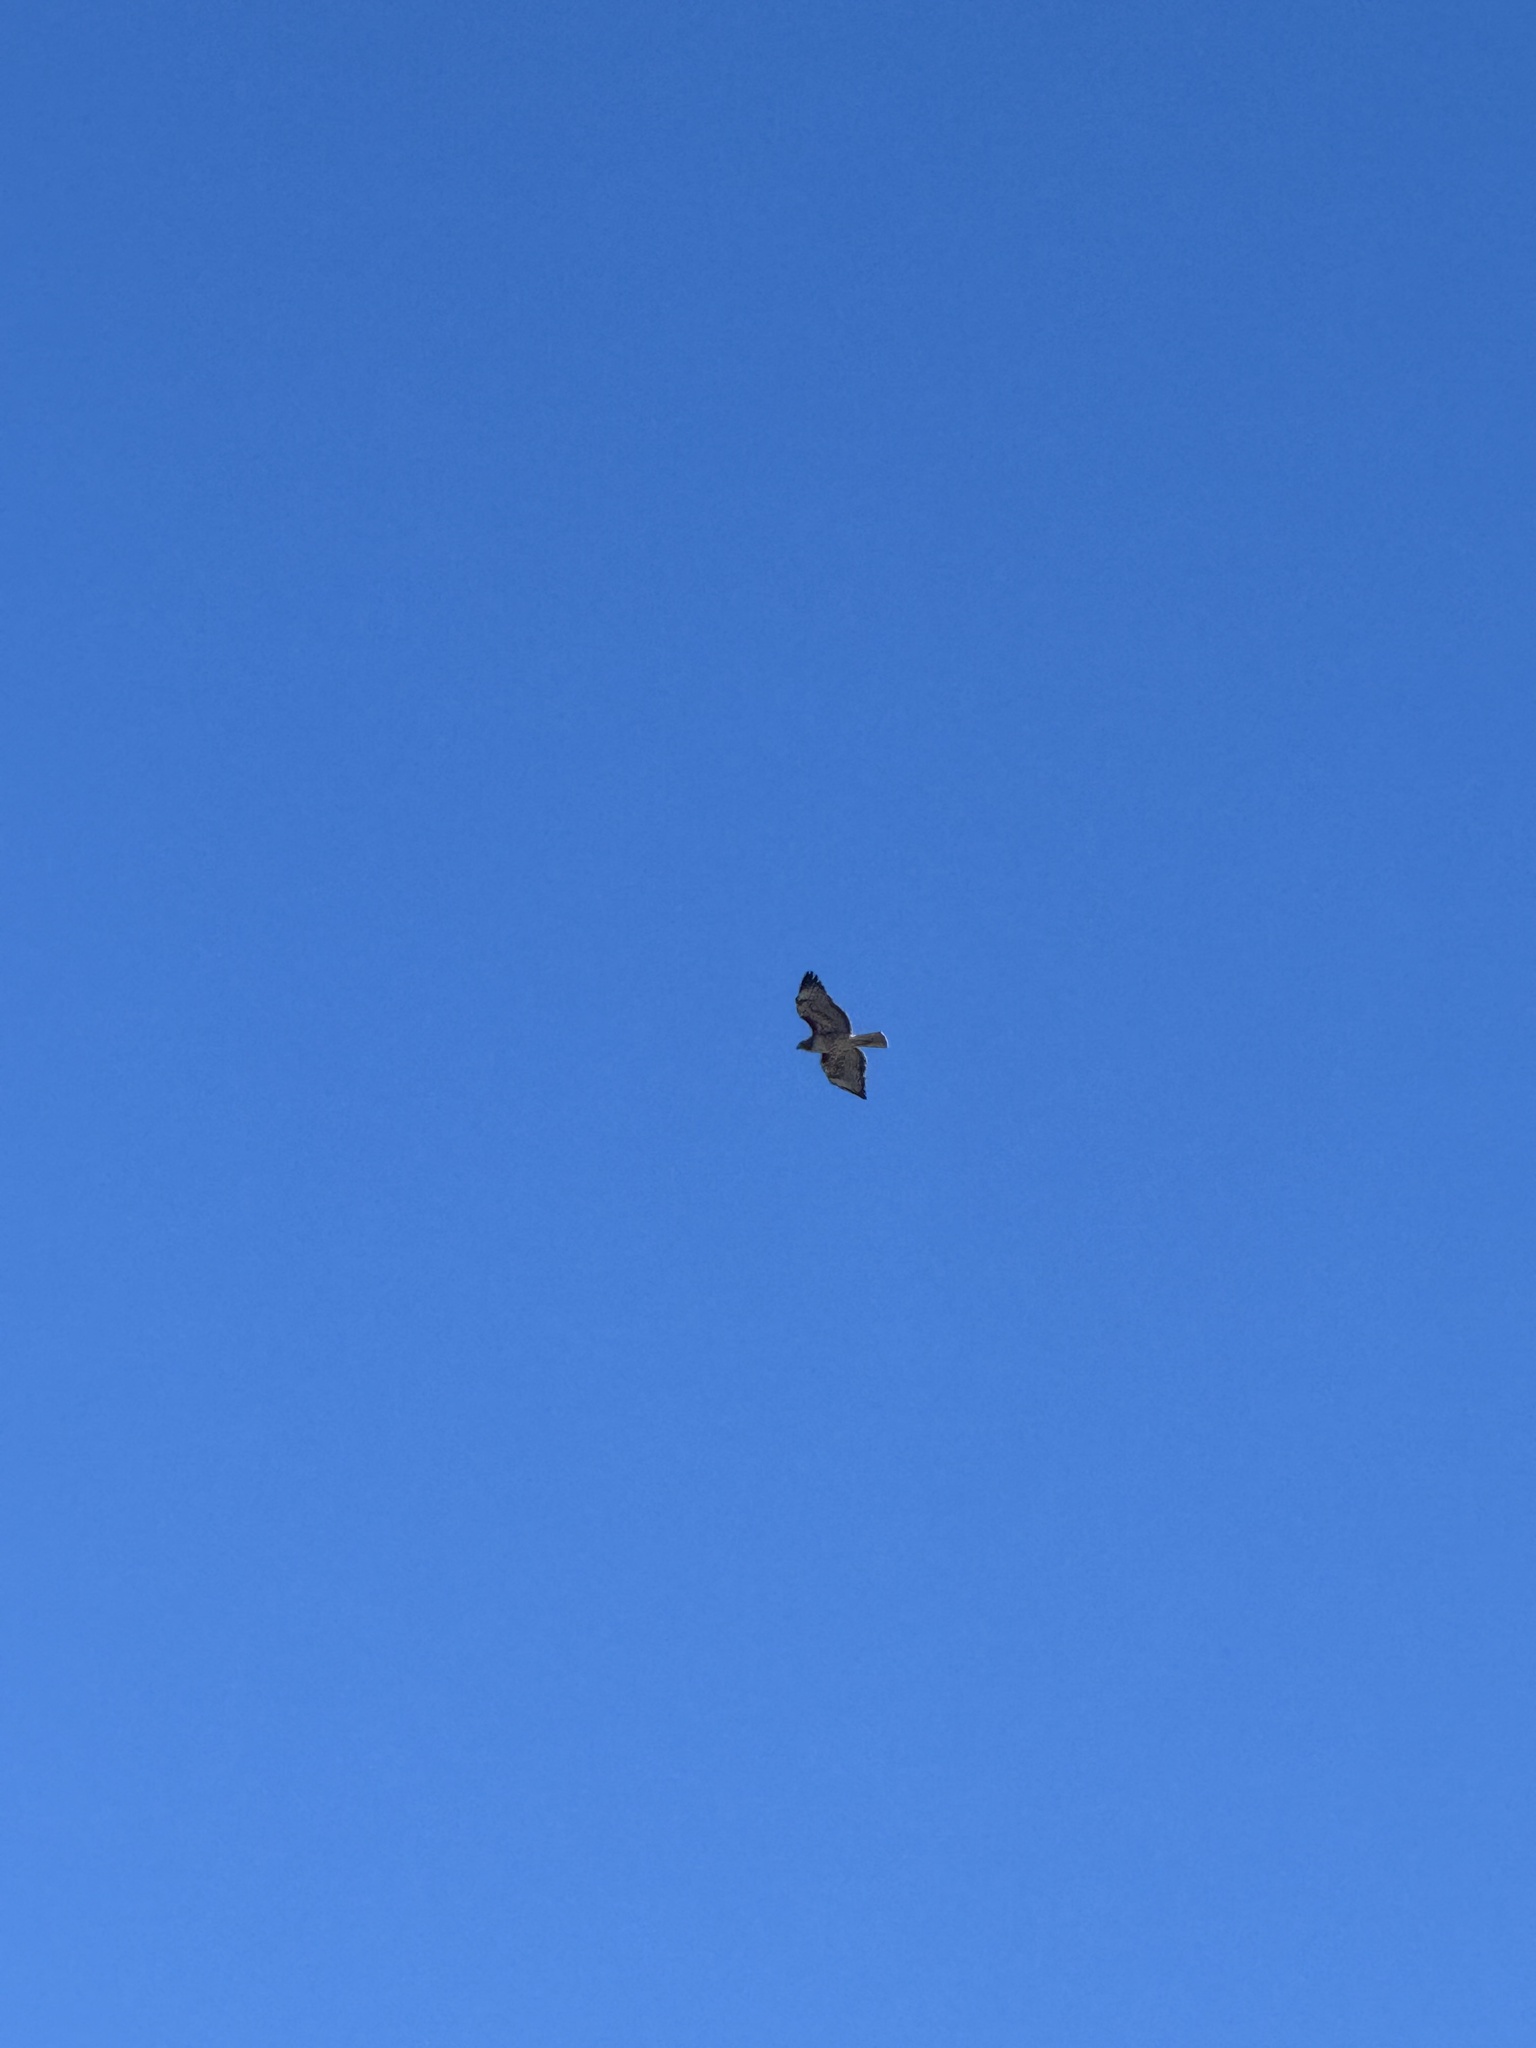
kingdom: Animalia
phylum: Chordata
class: Aves
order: Accipitriformes
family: Accipitridae
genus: Buteo
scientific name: Buteo jamaicensis
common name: Red-tailed hawk
